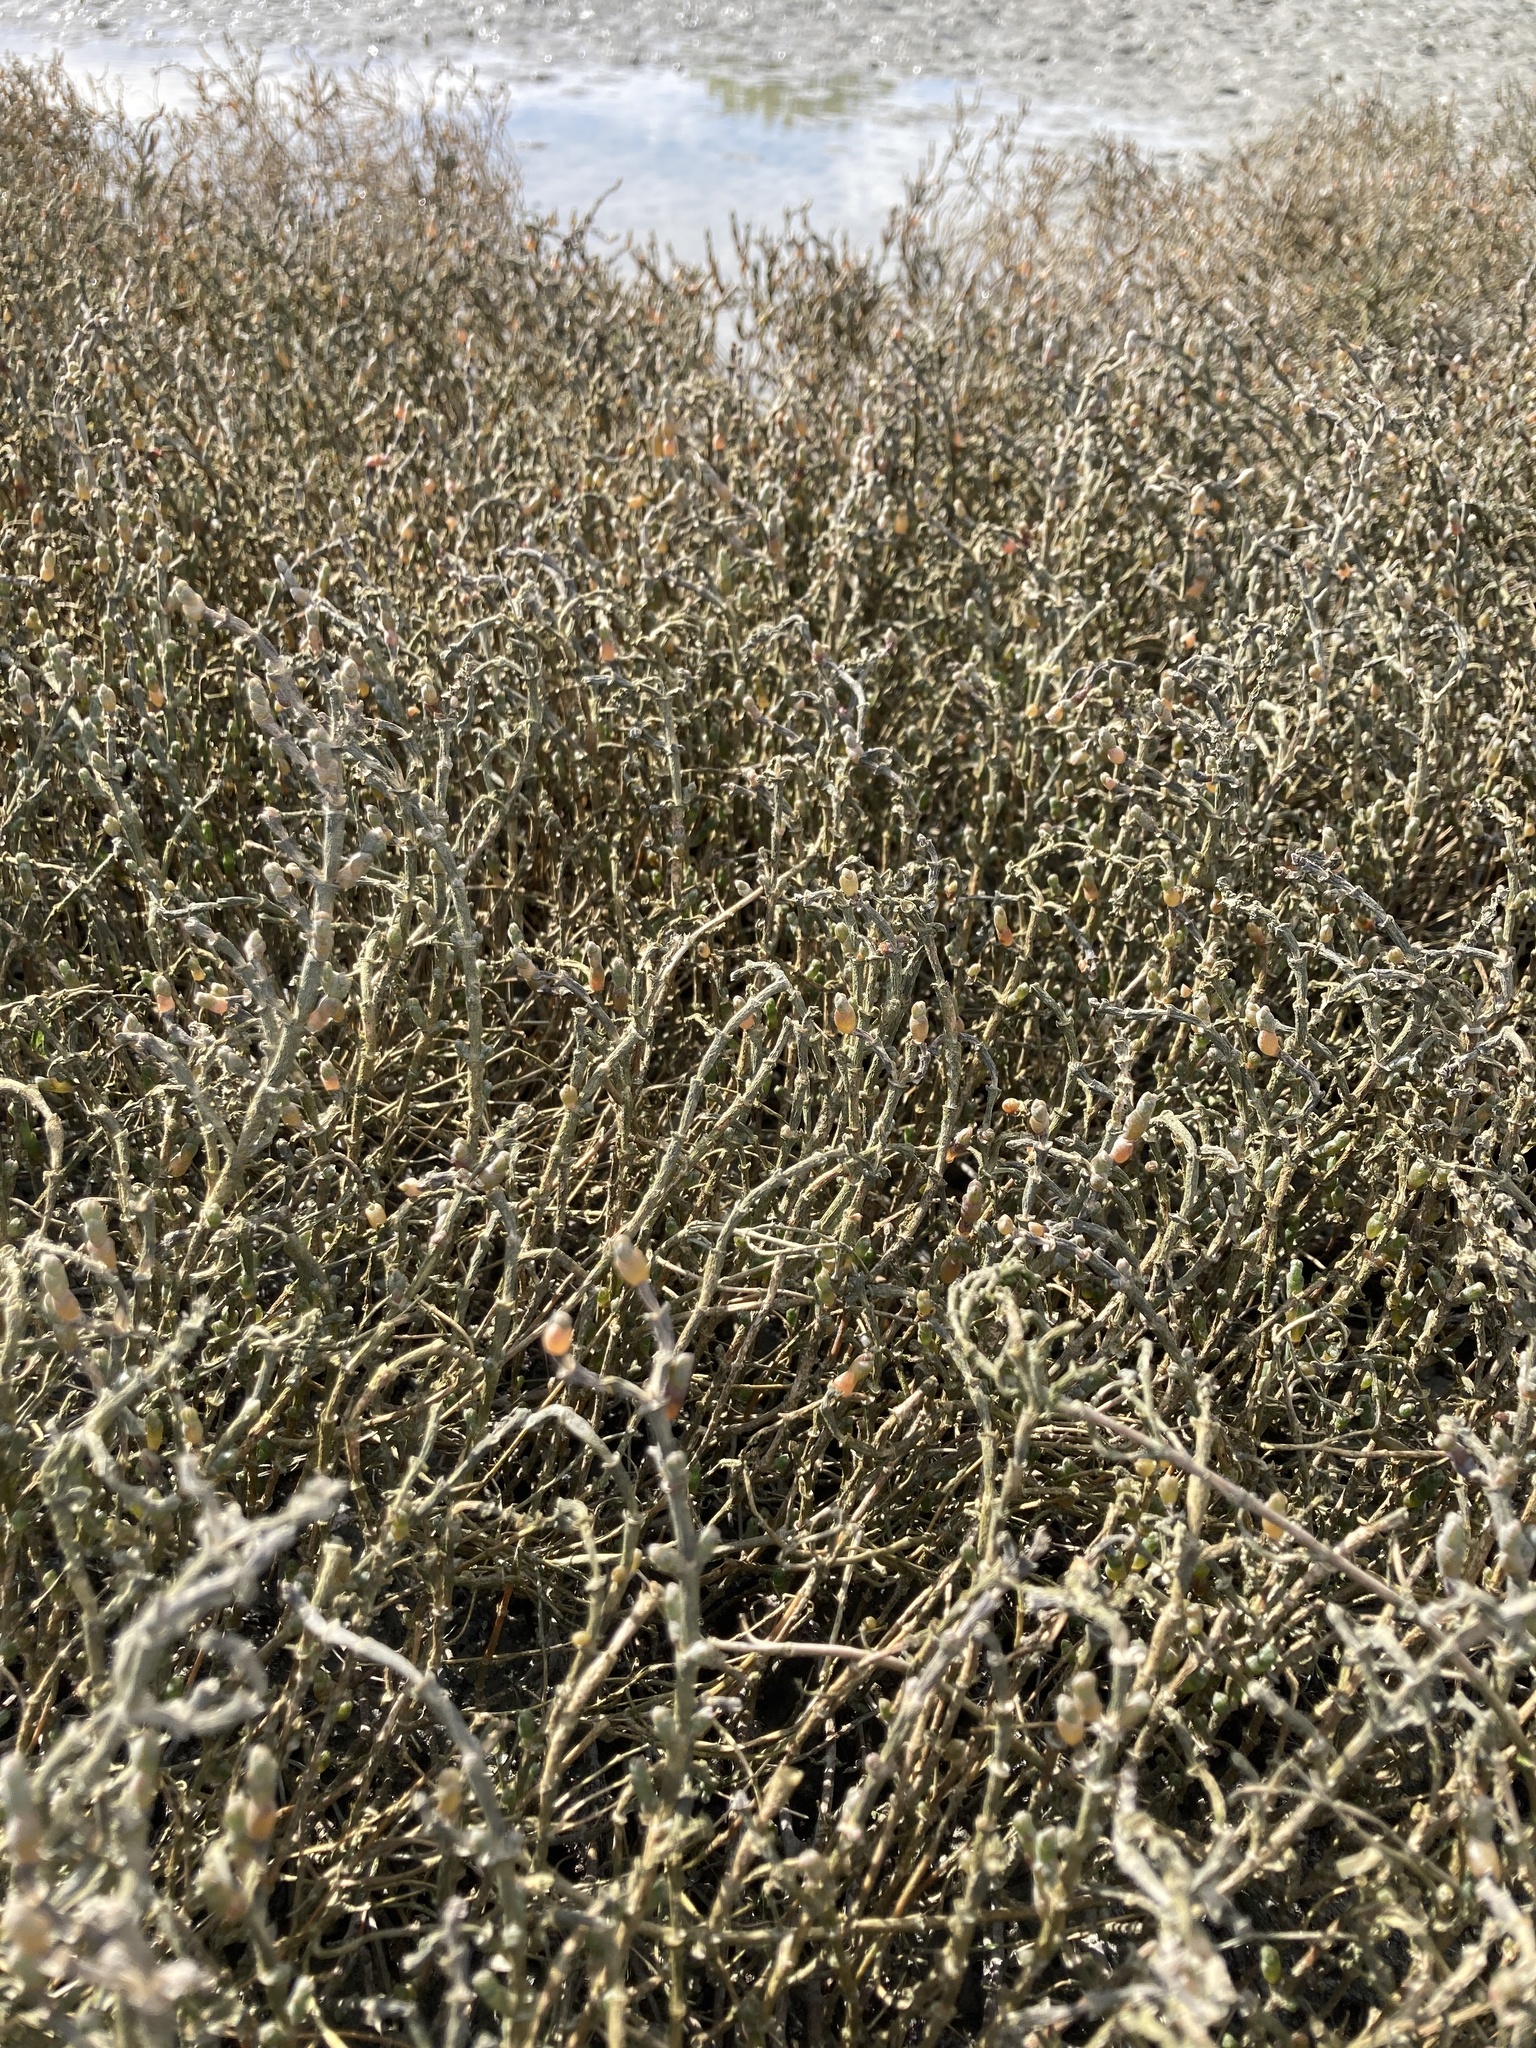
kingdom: Plantae
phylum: Tracheophyta
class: Magnoliopsida
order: Caryophyllales
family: Amaranthaceae
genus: Salicornia
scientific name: Salicornia quinqueflora
